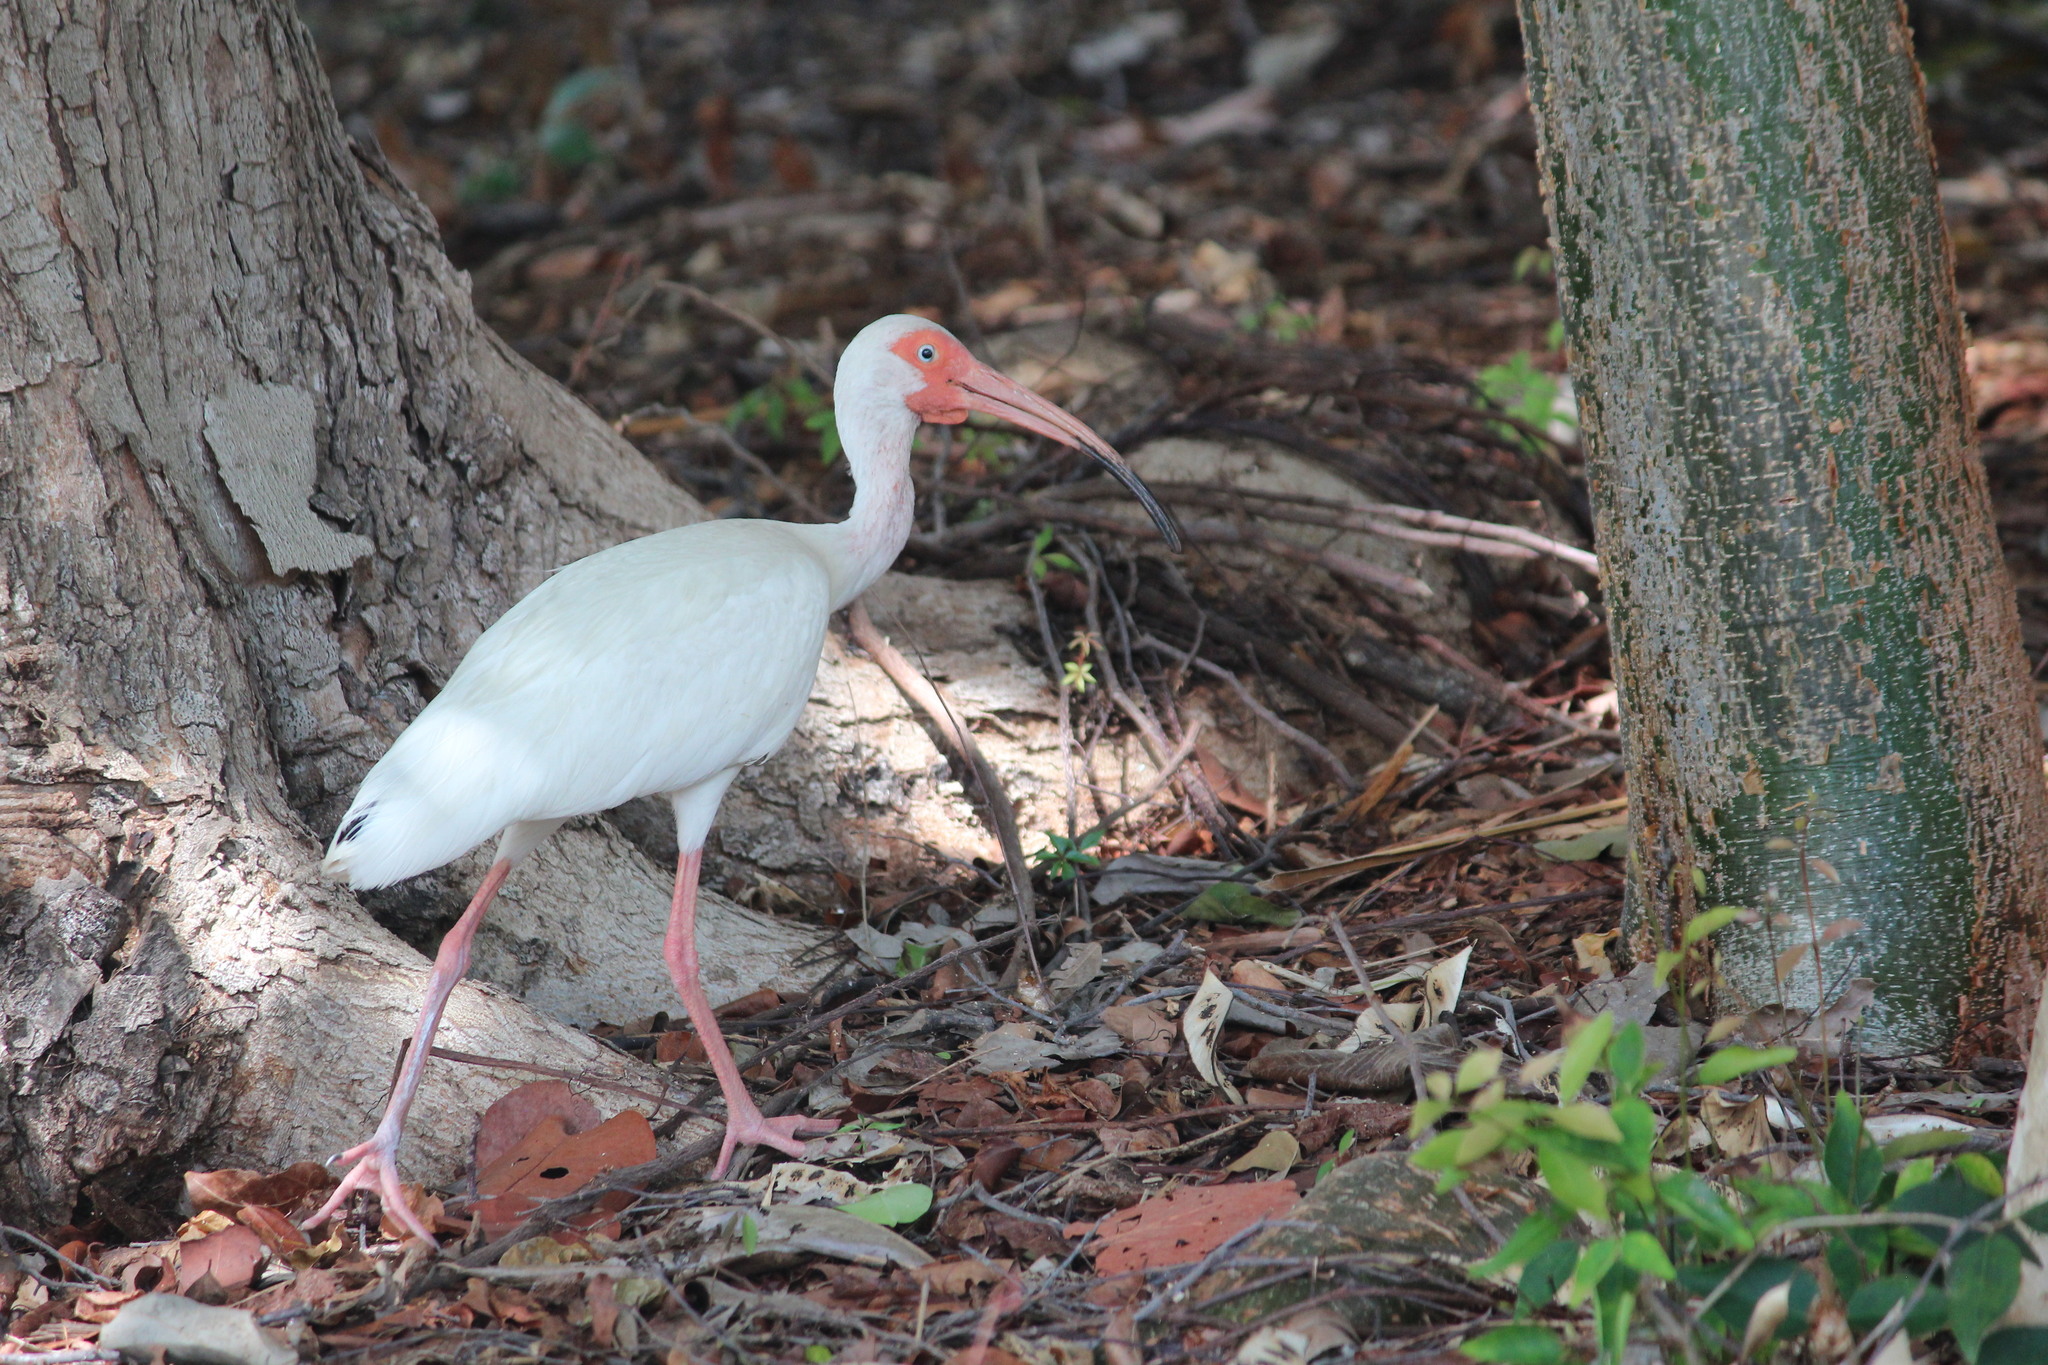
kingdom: Animalia
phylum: Chordata
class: Aves
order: Pelecaniformes
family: Threskiornithidae
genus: Eudocimus
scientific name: Eudocimus albus
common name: White ibis
